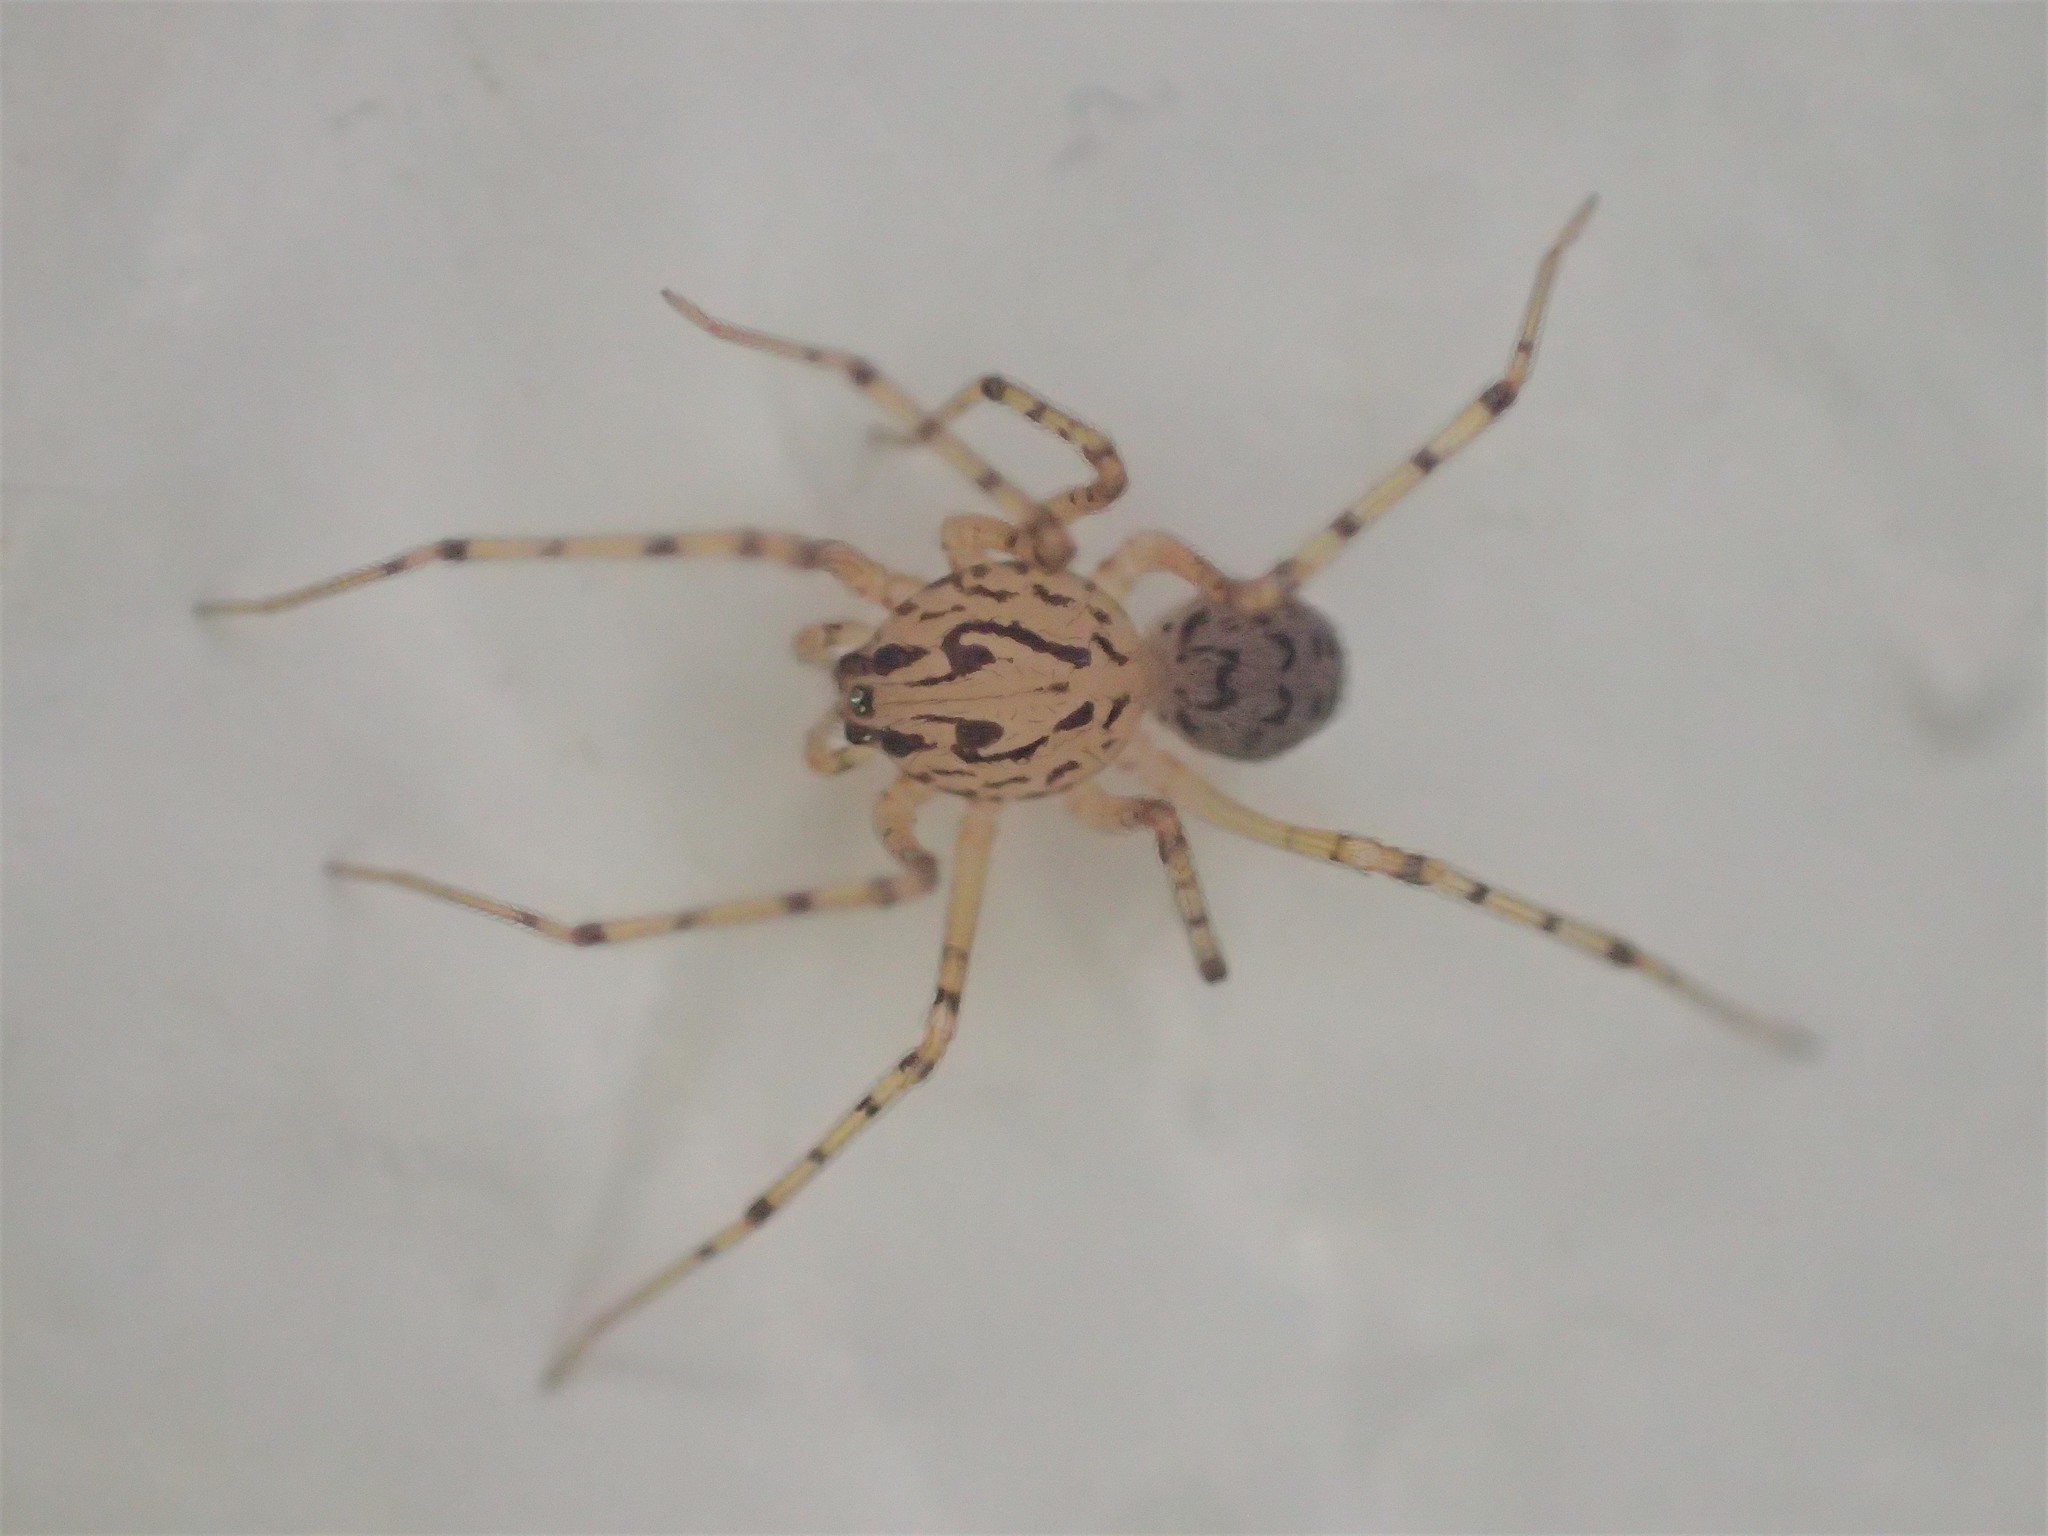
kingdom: Animalia
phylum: Arthropoda
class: Arachnida
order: Araneae
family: Scytodidae
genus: Scytodes
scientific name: Scytodes thoracica
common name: Spitting spider
